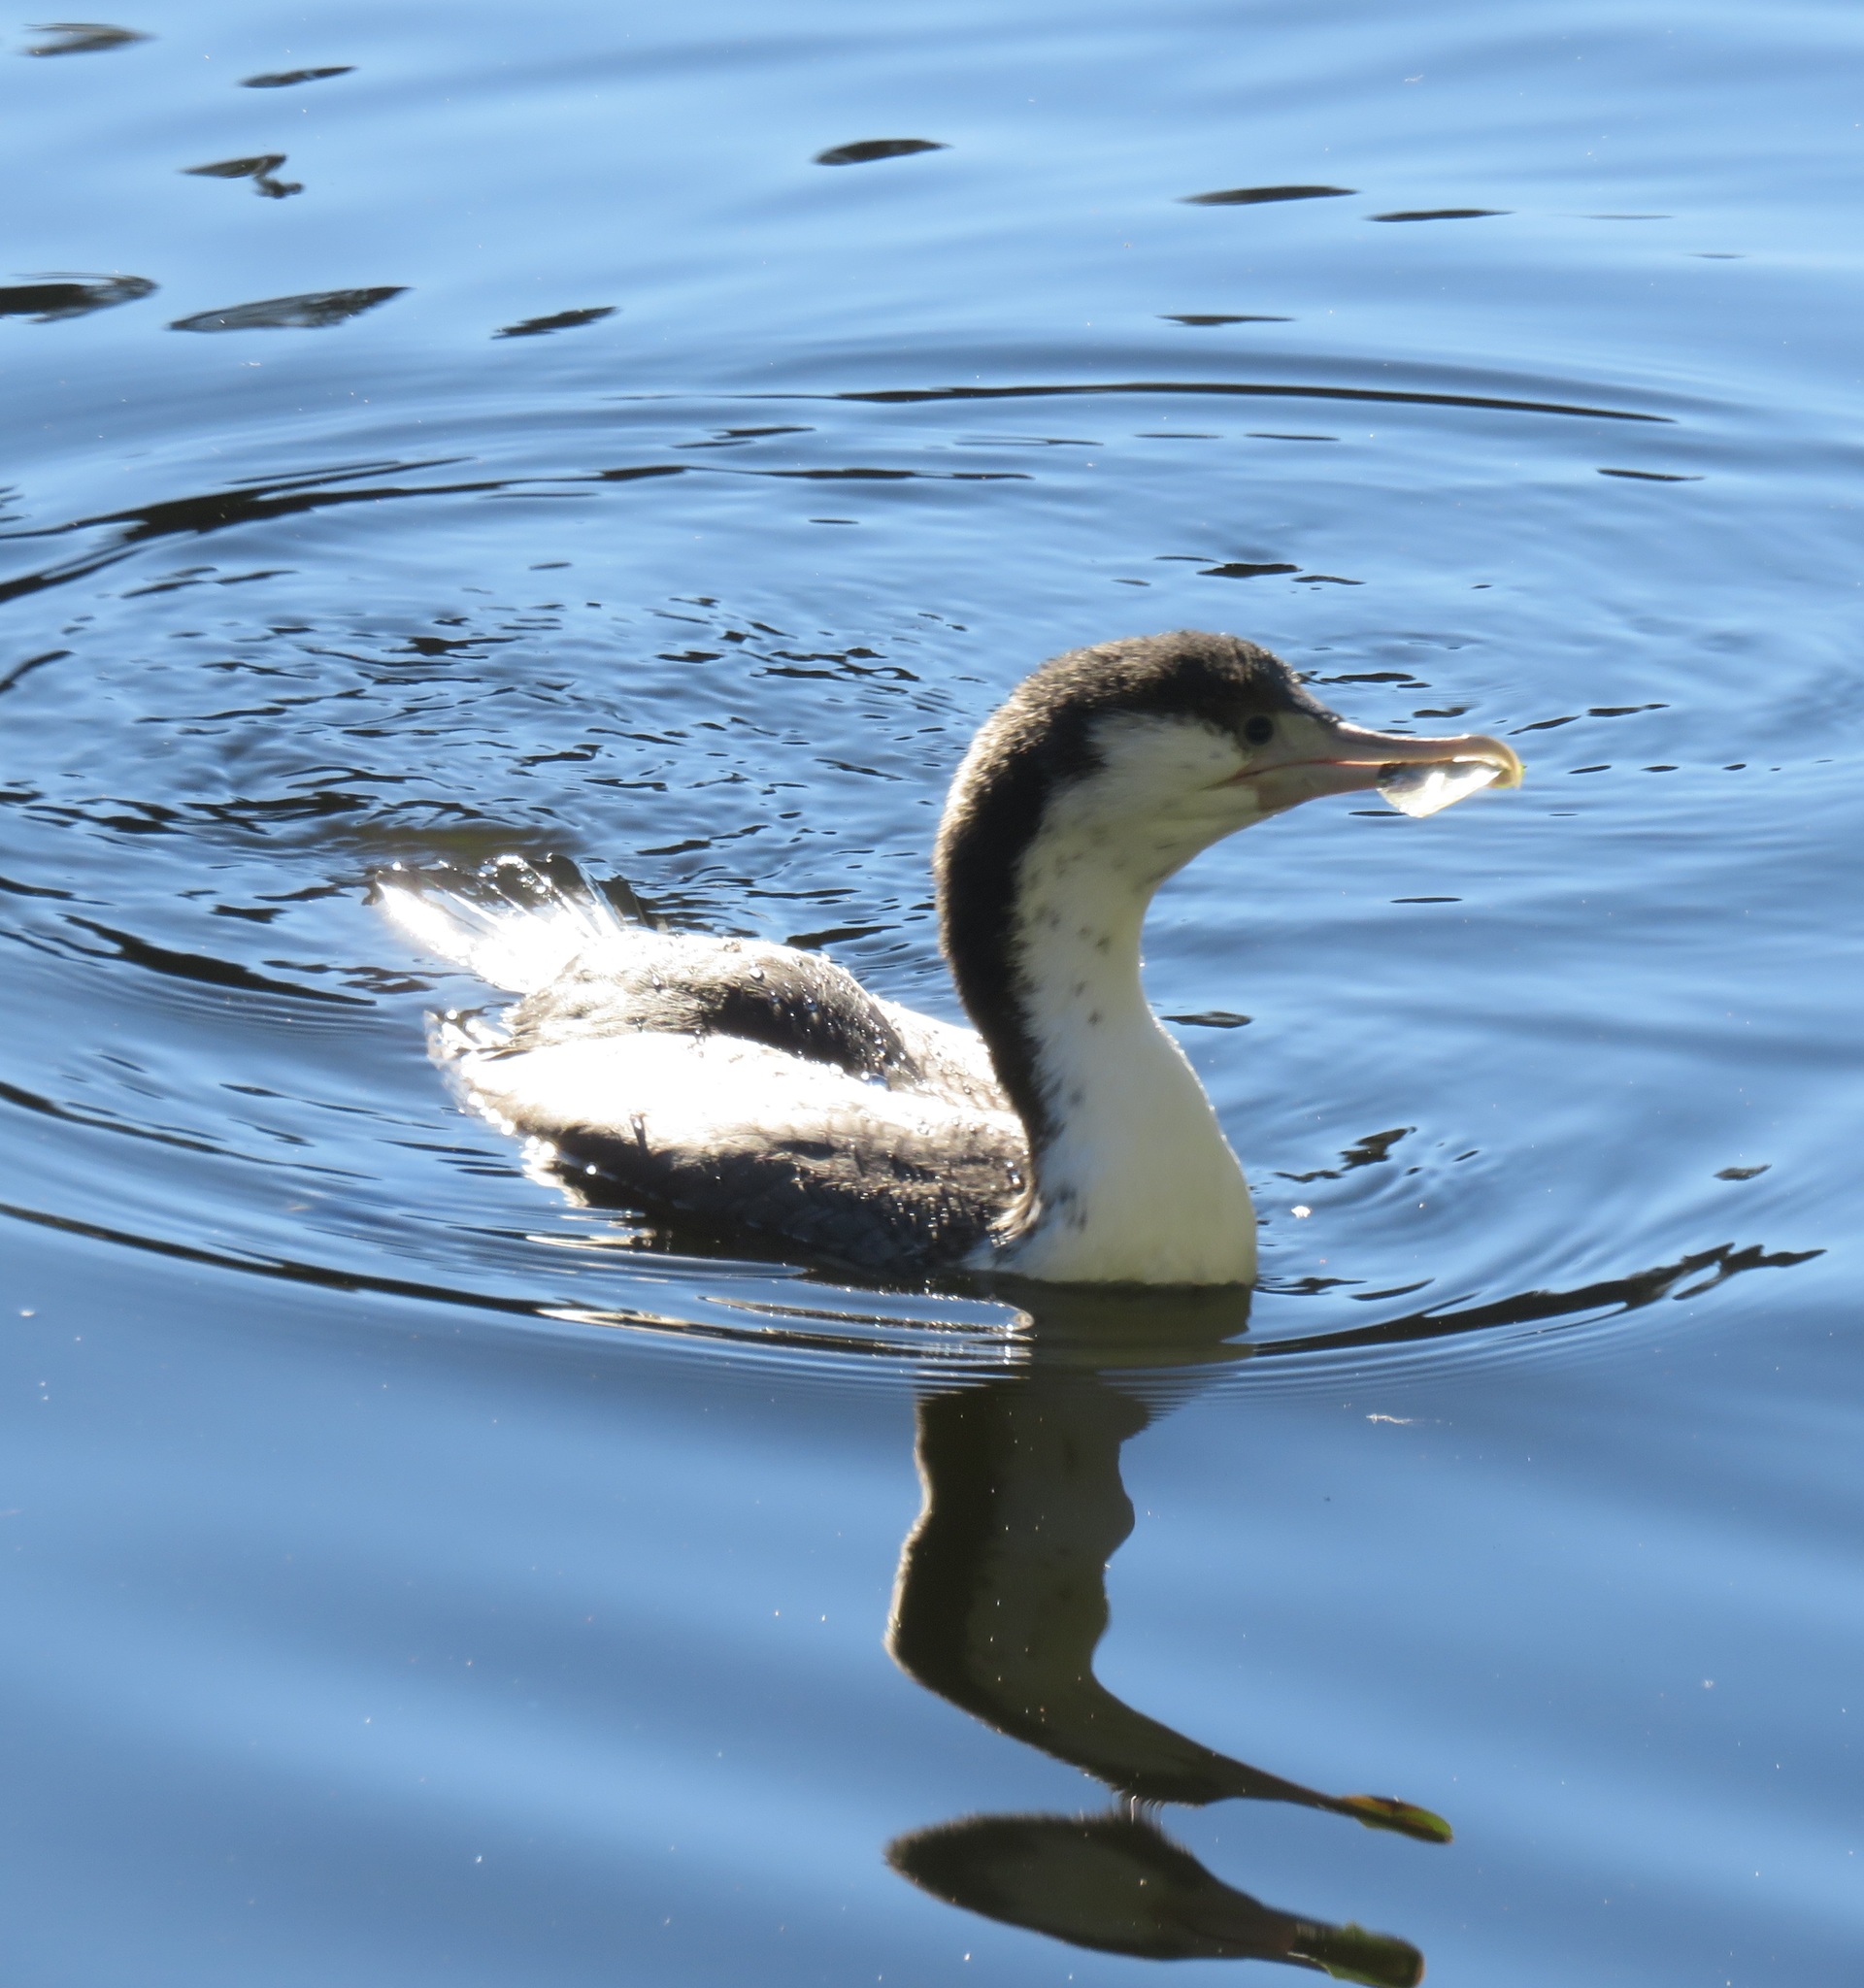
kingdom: Animalia
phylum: Chordata
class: Aves
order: Suliformes
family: Phalacrocoracidae
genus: Phalacrocorax
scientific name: Phalacrocorax varius
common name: Pied cormorant
